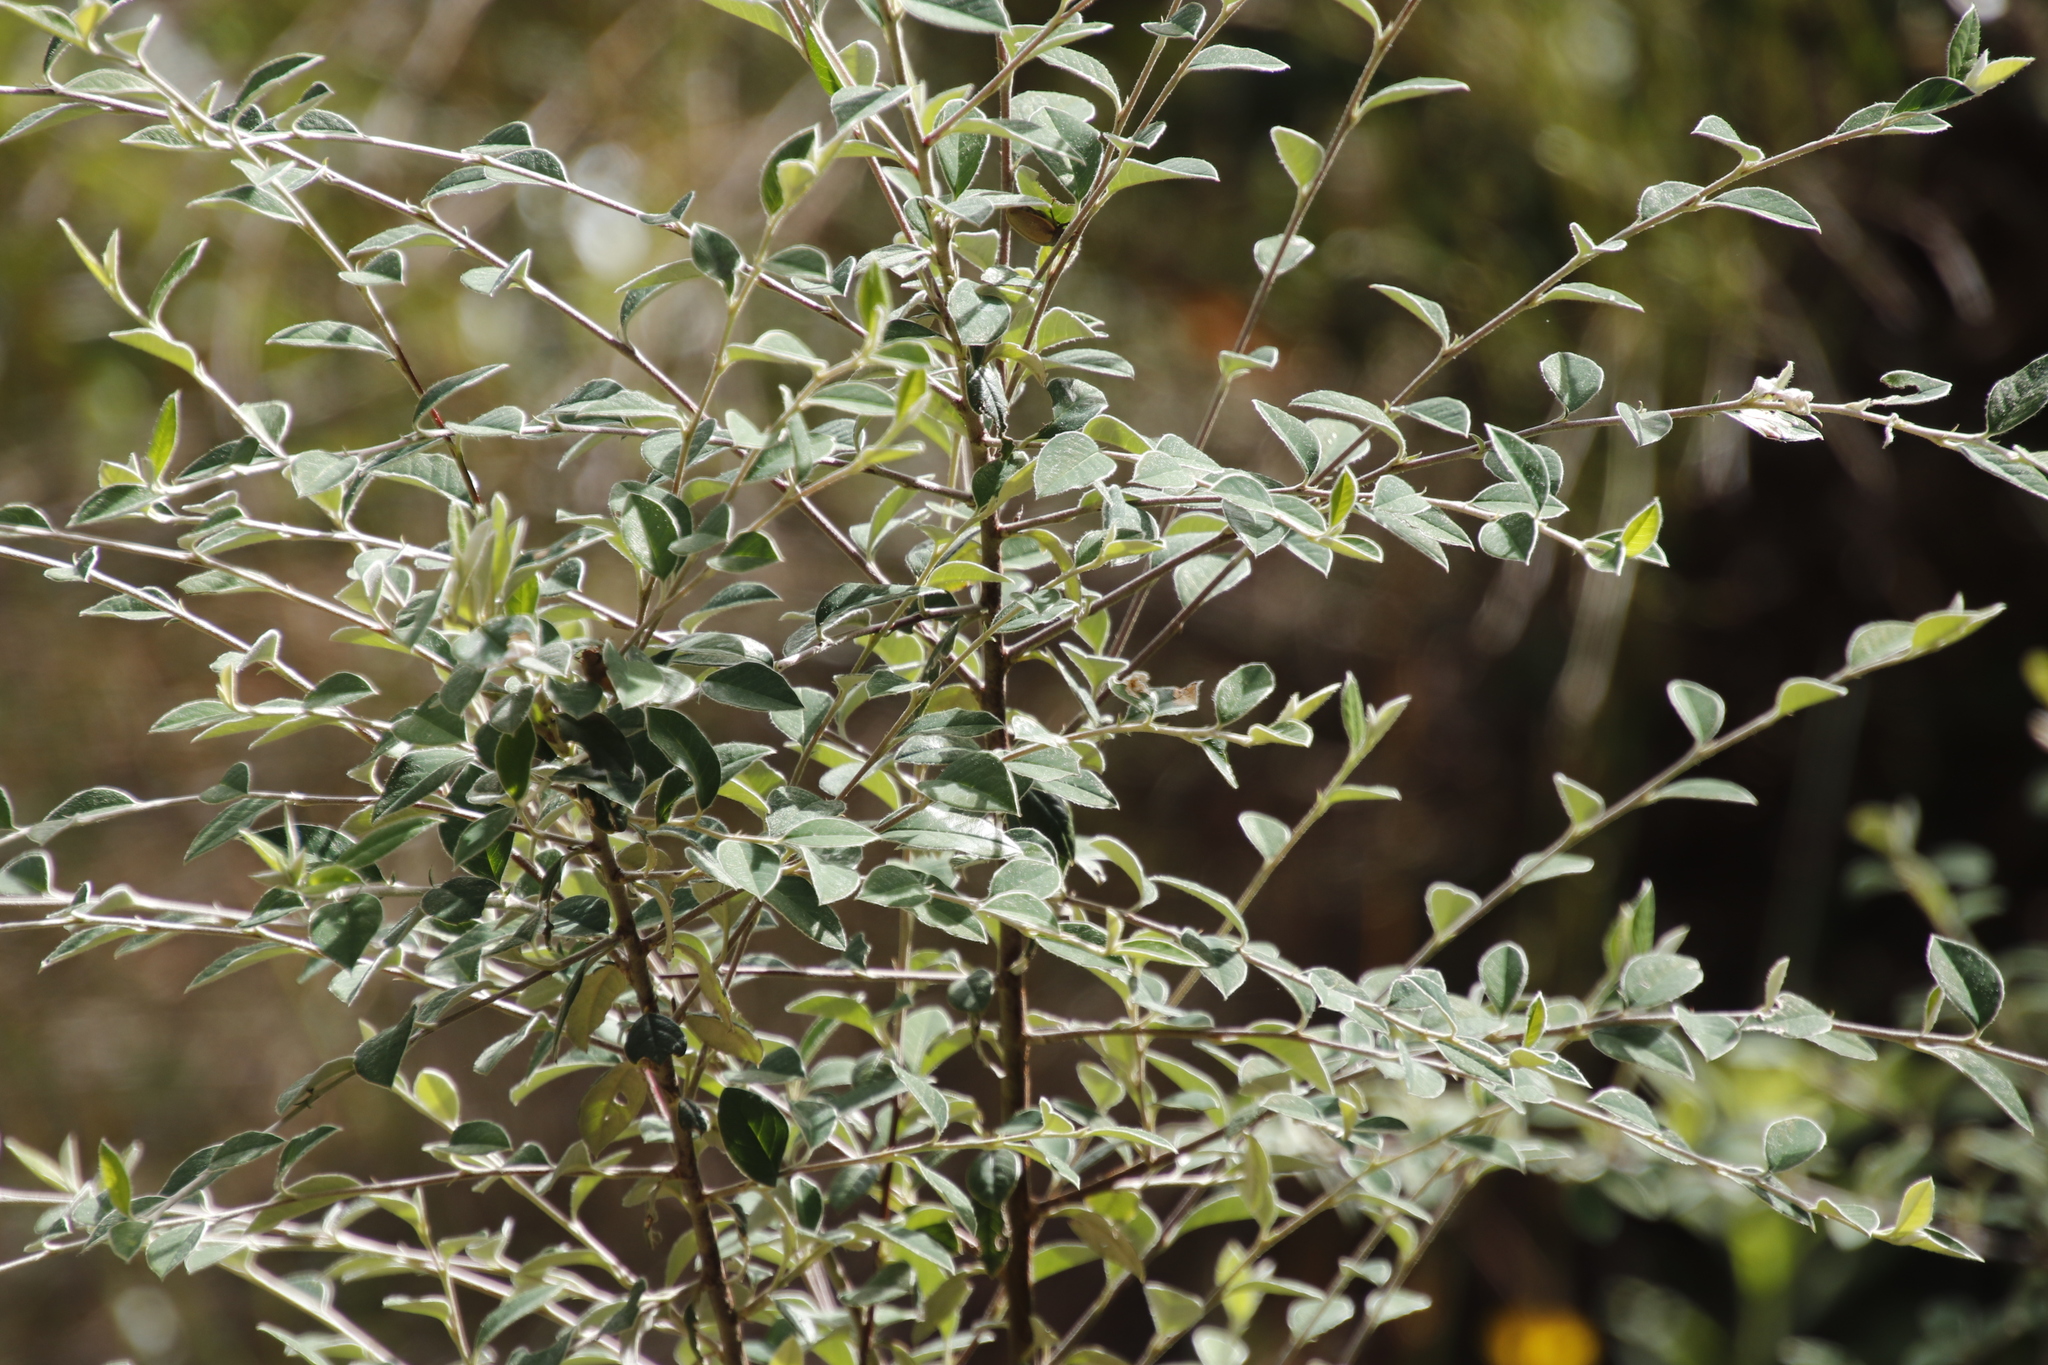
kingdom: Plantae
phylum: Tracheophyta
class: Magnoliopsida
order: Rosales
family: Rosaceae
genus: Cotoneaster
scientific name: Cotoneaster pannosus
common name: Silverleaf cotoneaster
